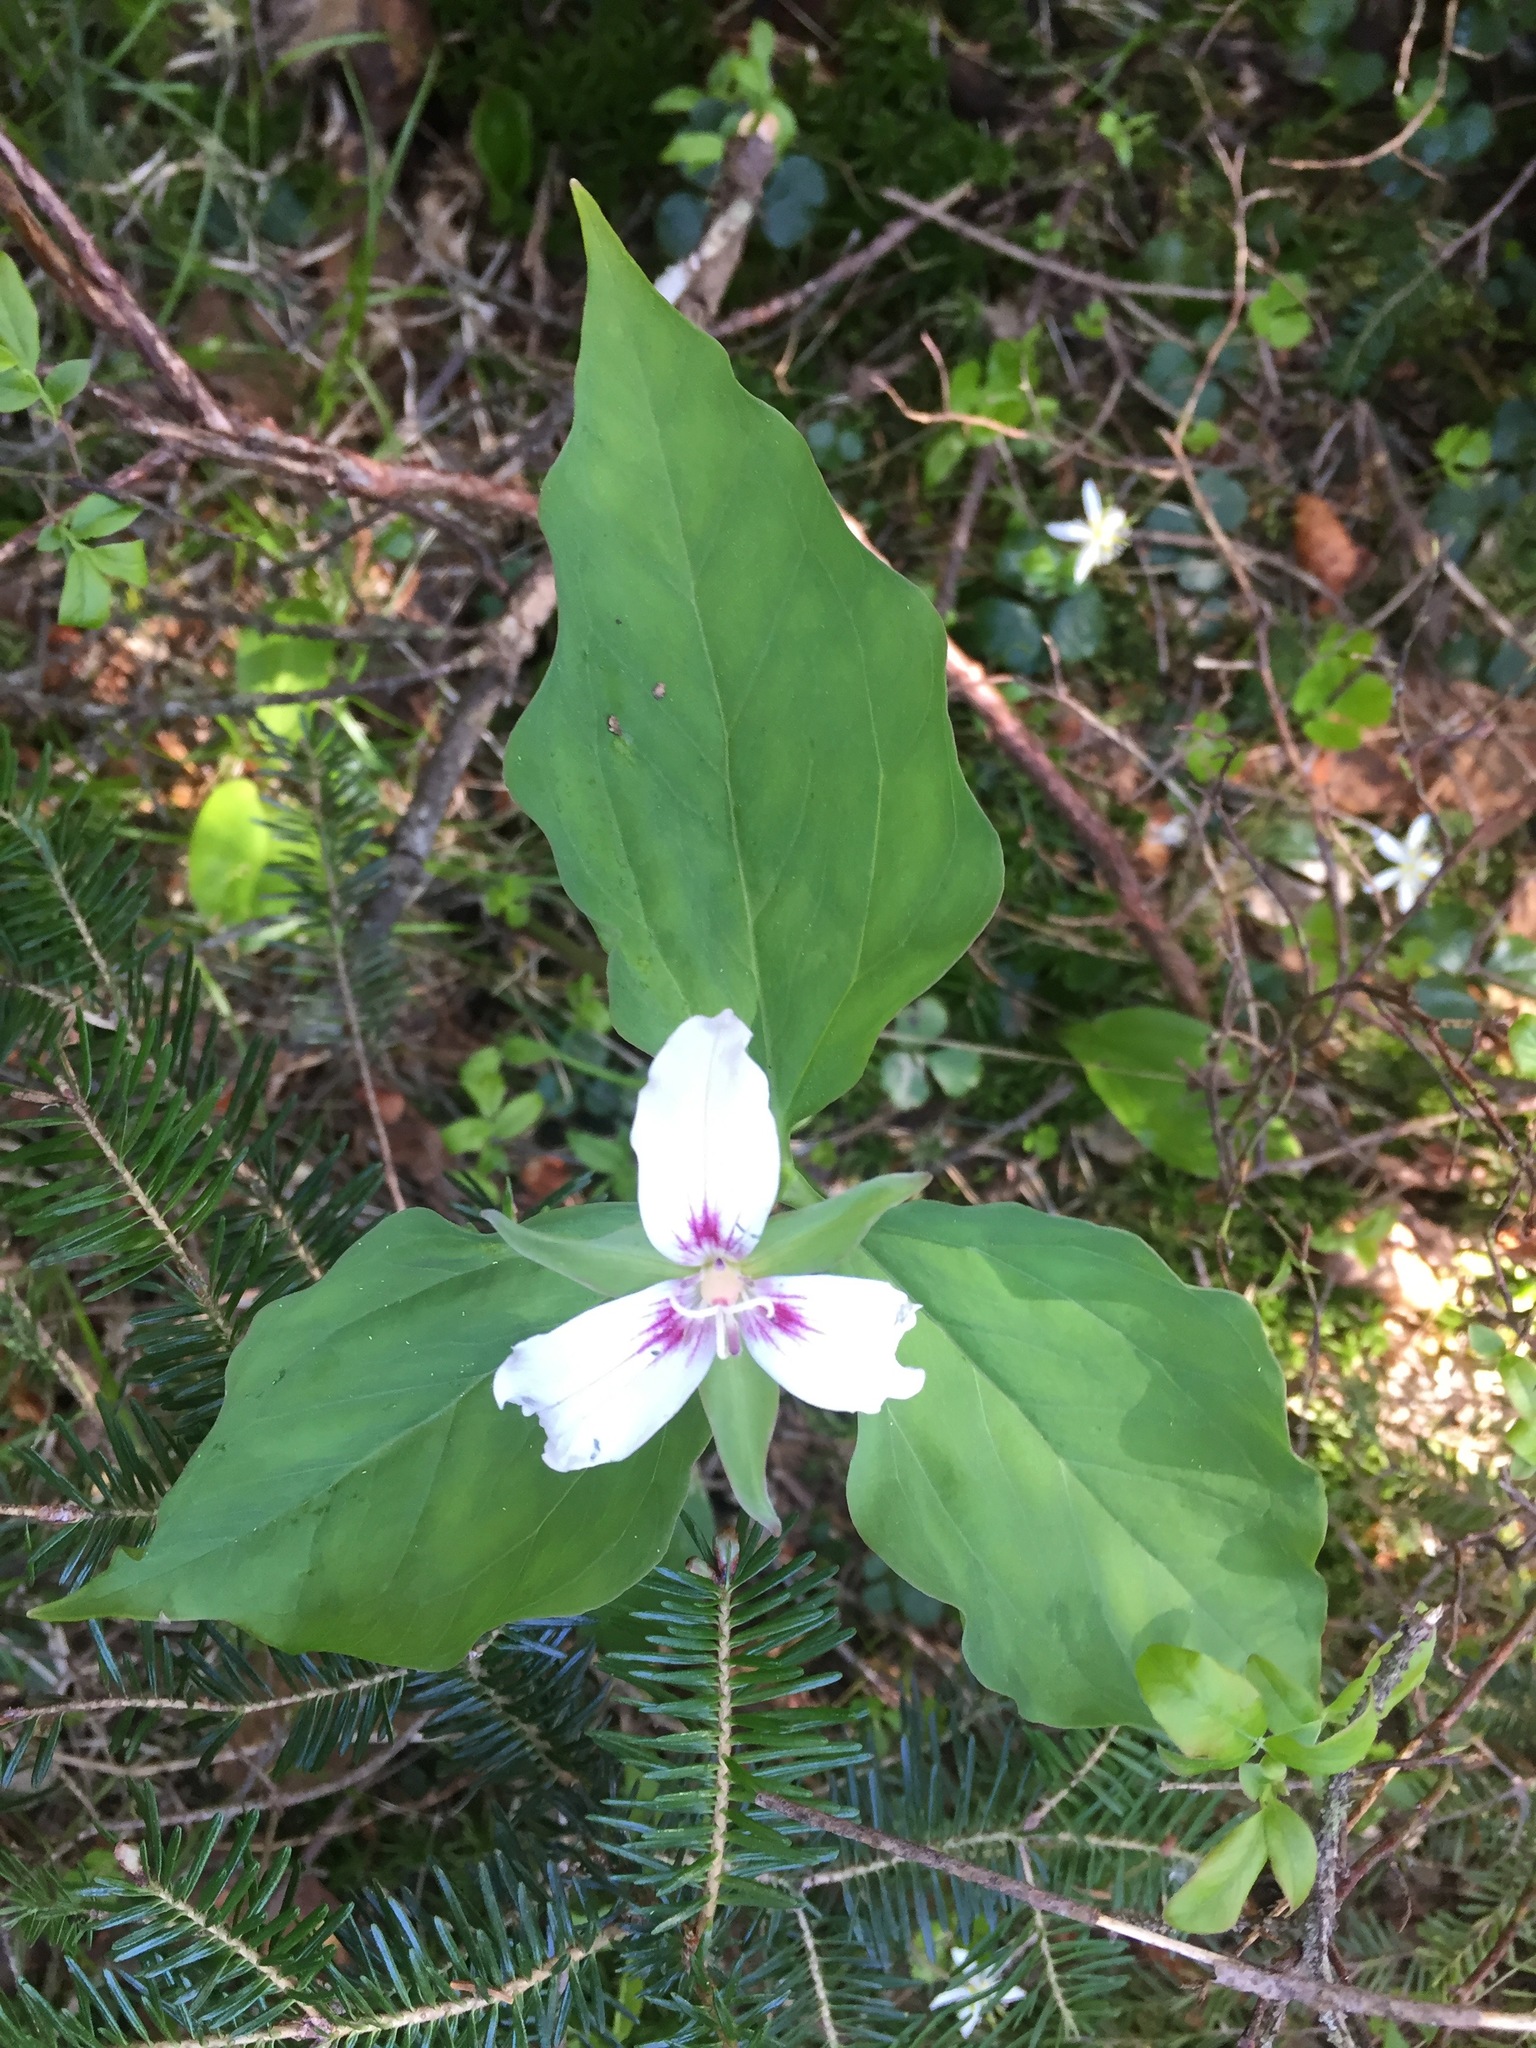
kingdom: Plantae
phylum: Tracheophyta
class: Liliopsida
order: Liliales
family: Melanthiaceae
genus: Trillium
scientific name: Trillium undulatum
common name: Paint trillium
